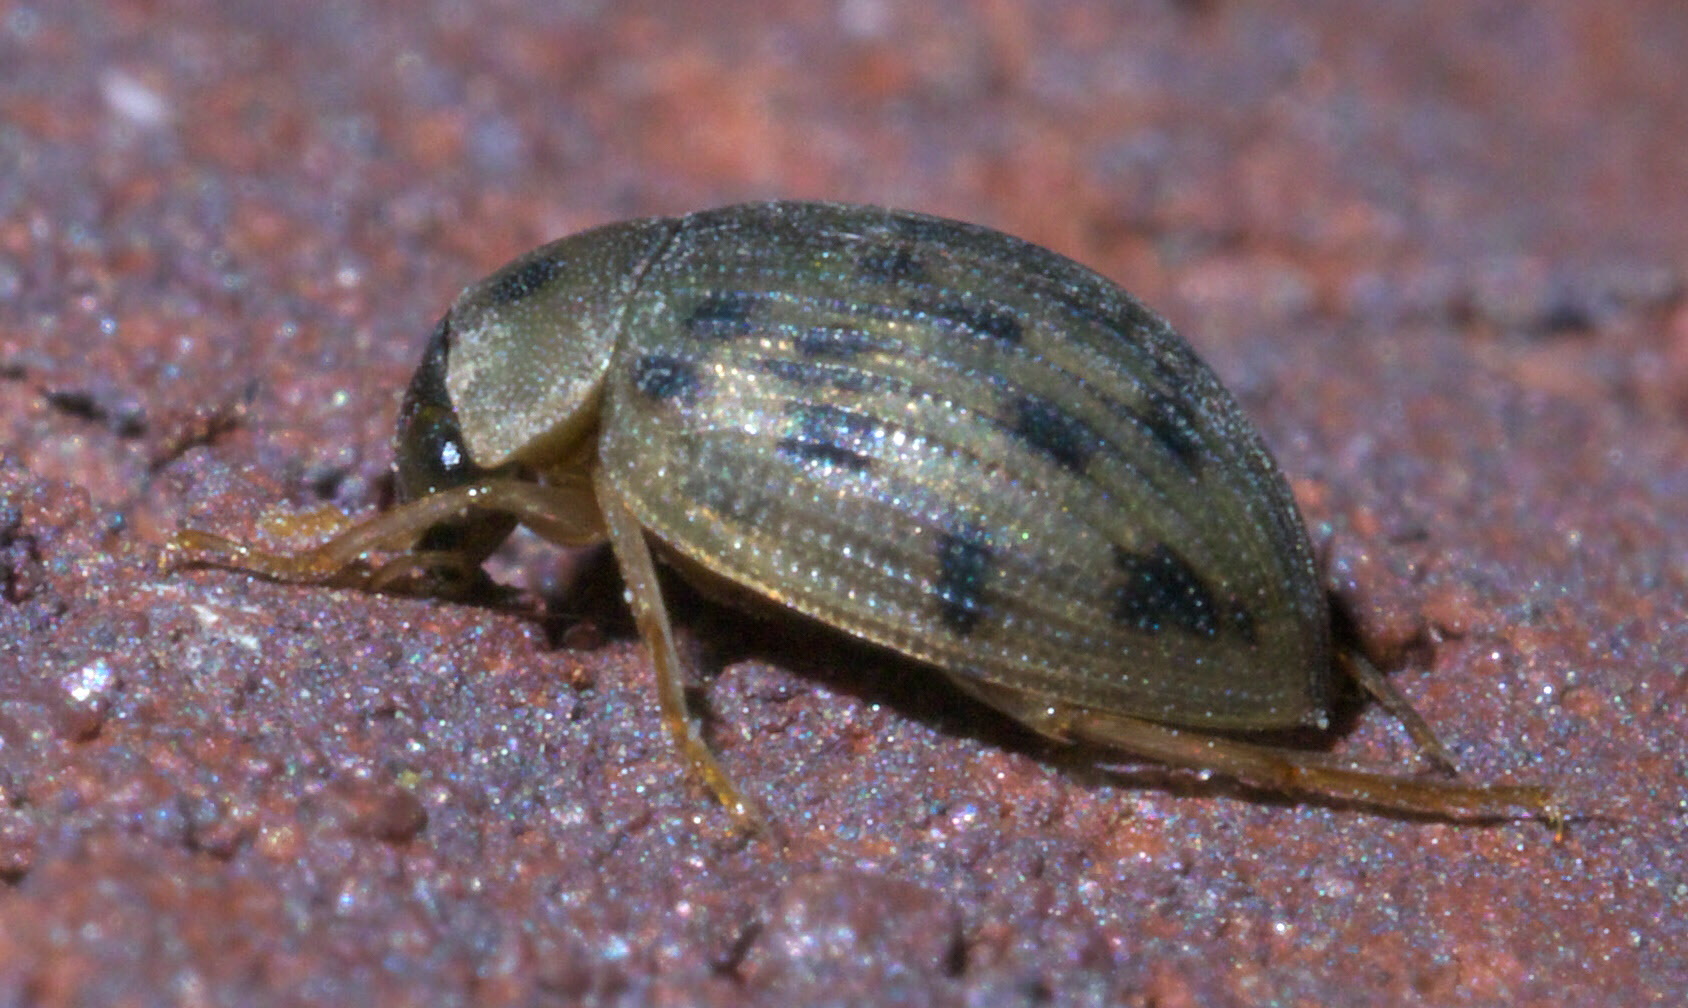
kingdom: Animalia
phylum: Arthropoda
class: Insecta
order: Coleoptera
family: Hydrophilidae
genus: Berosus
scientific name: Berosus pantherinus
